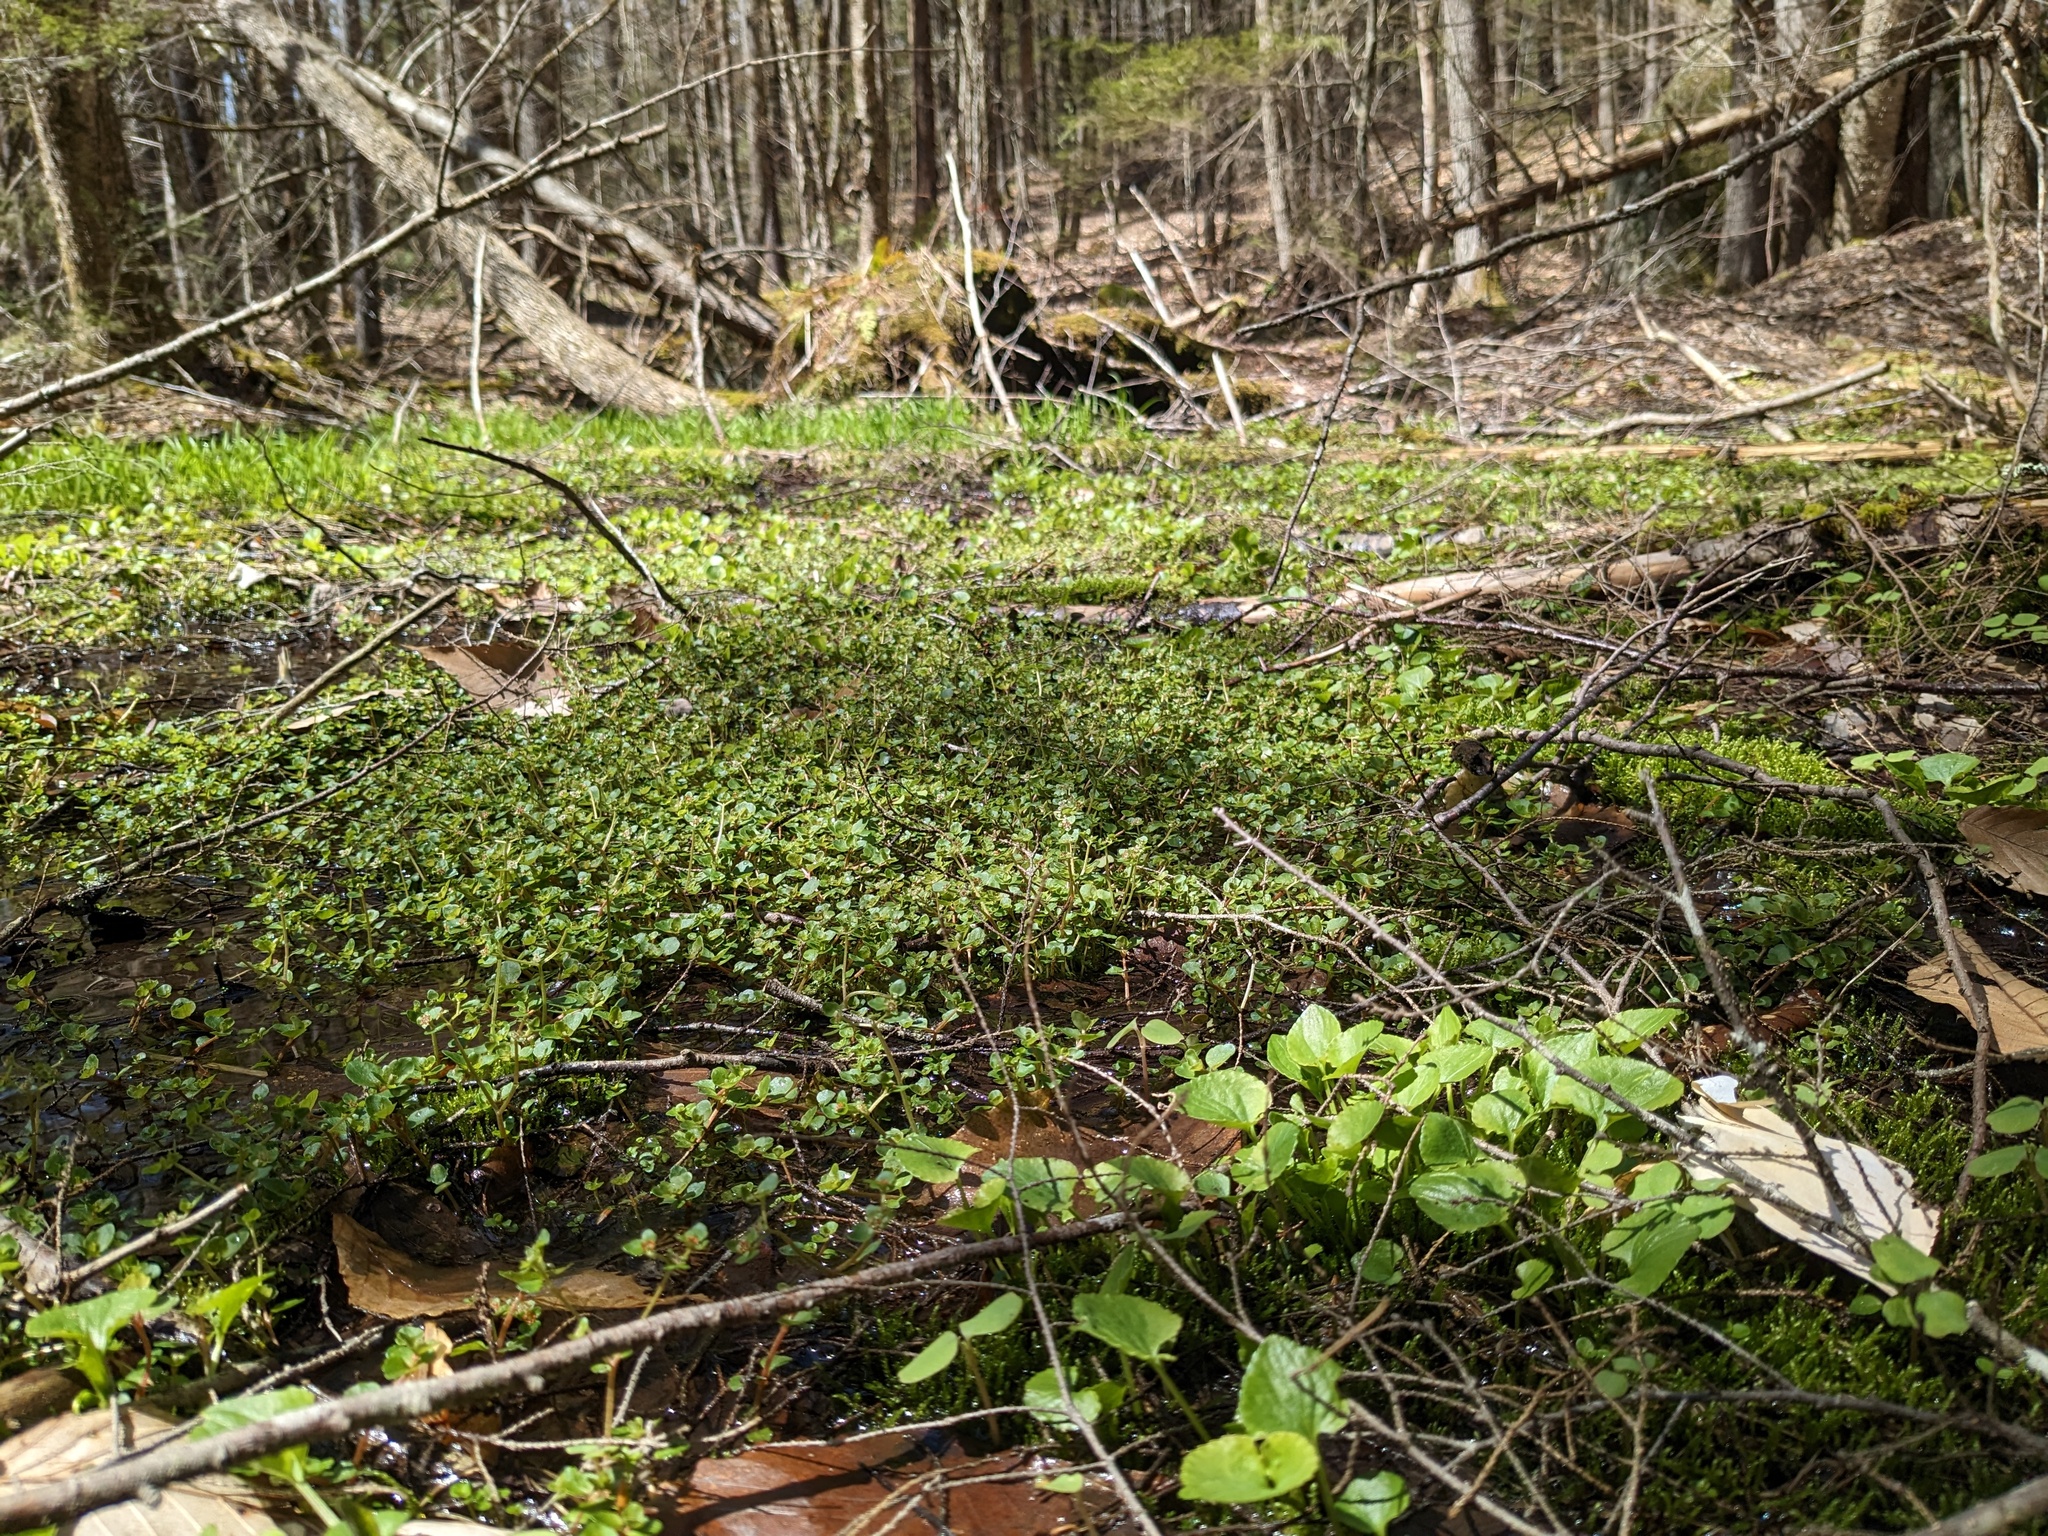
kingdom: Plantae
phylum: Tracheophyta
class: Magnoliopsida
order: Saxifragales
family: Saxifragaceae
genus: Chrysosplenium
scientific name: Chrysosplenium americanum
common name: American golden-saxifrage
